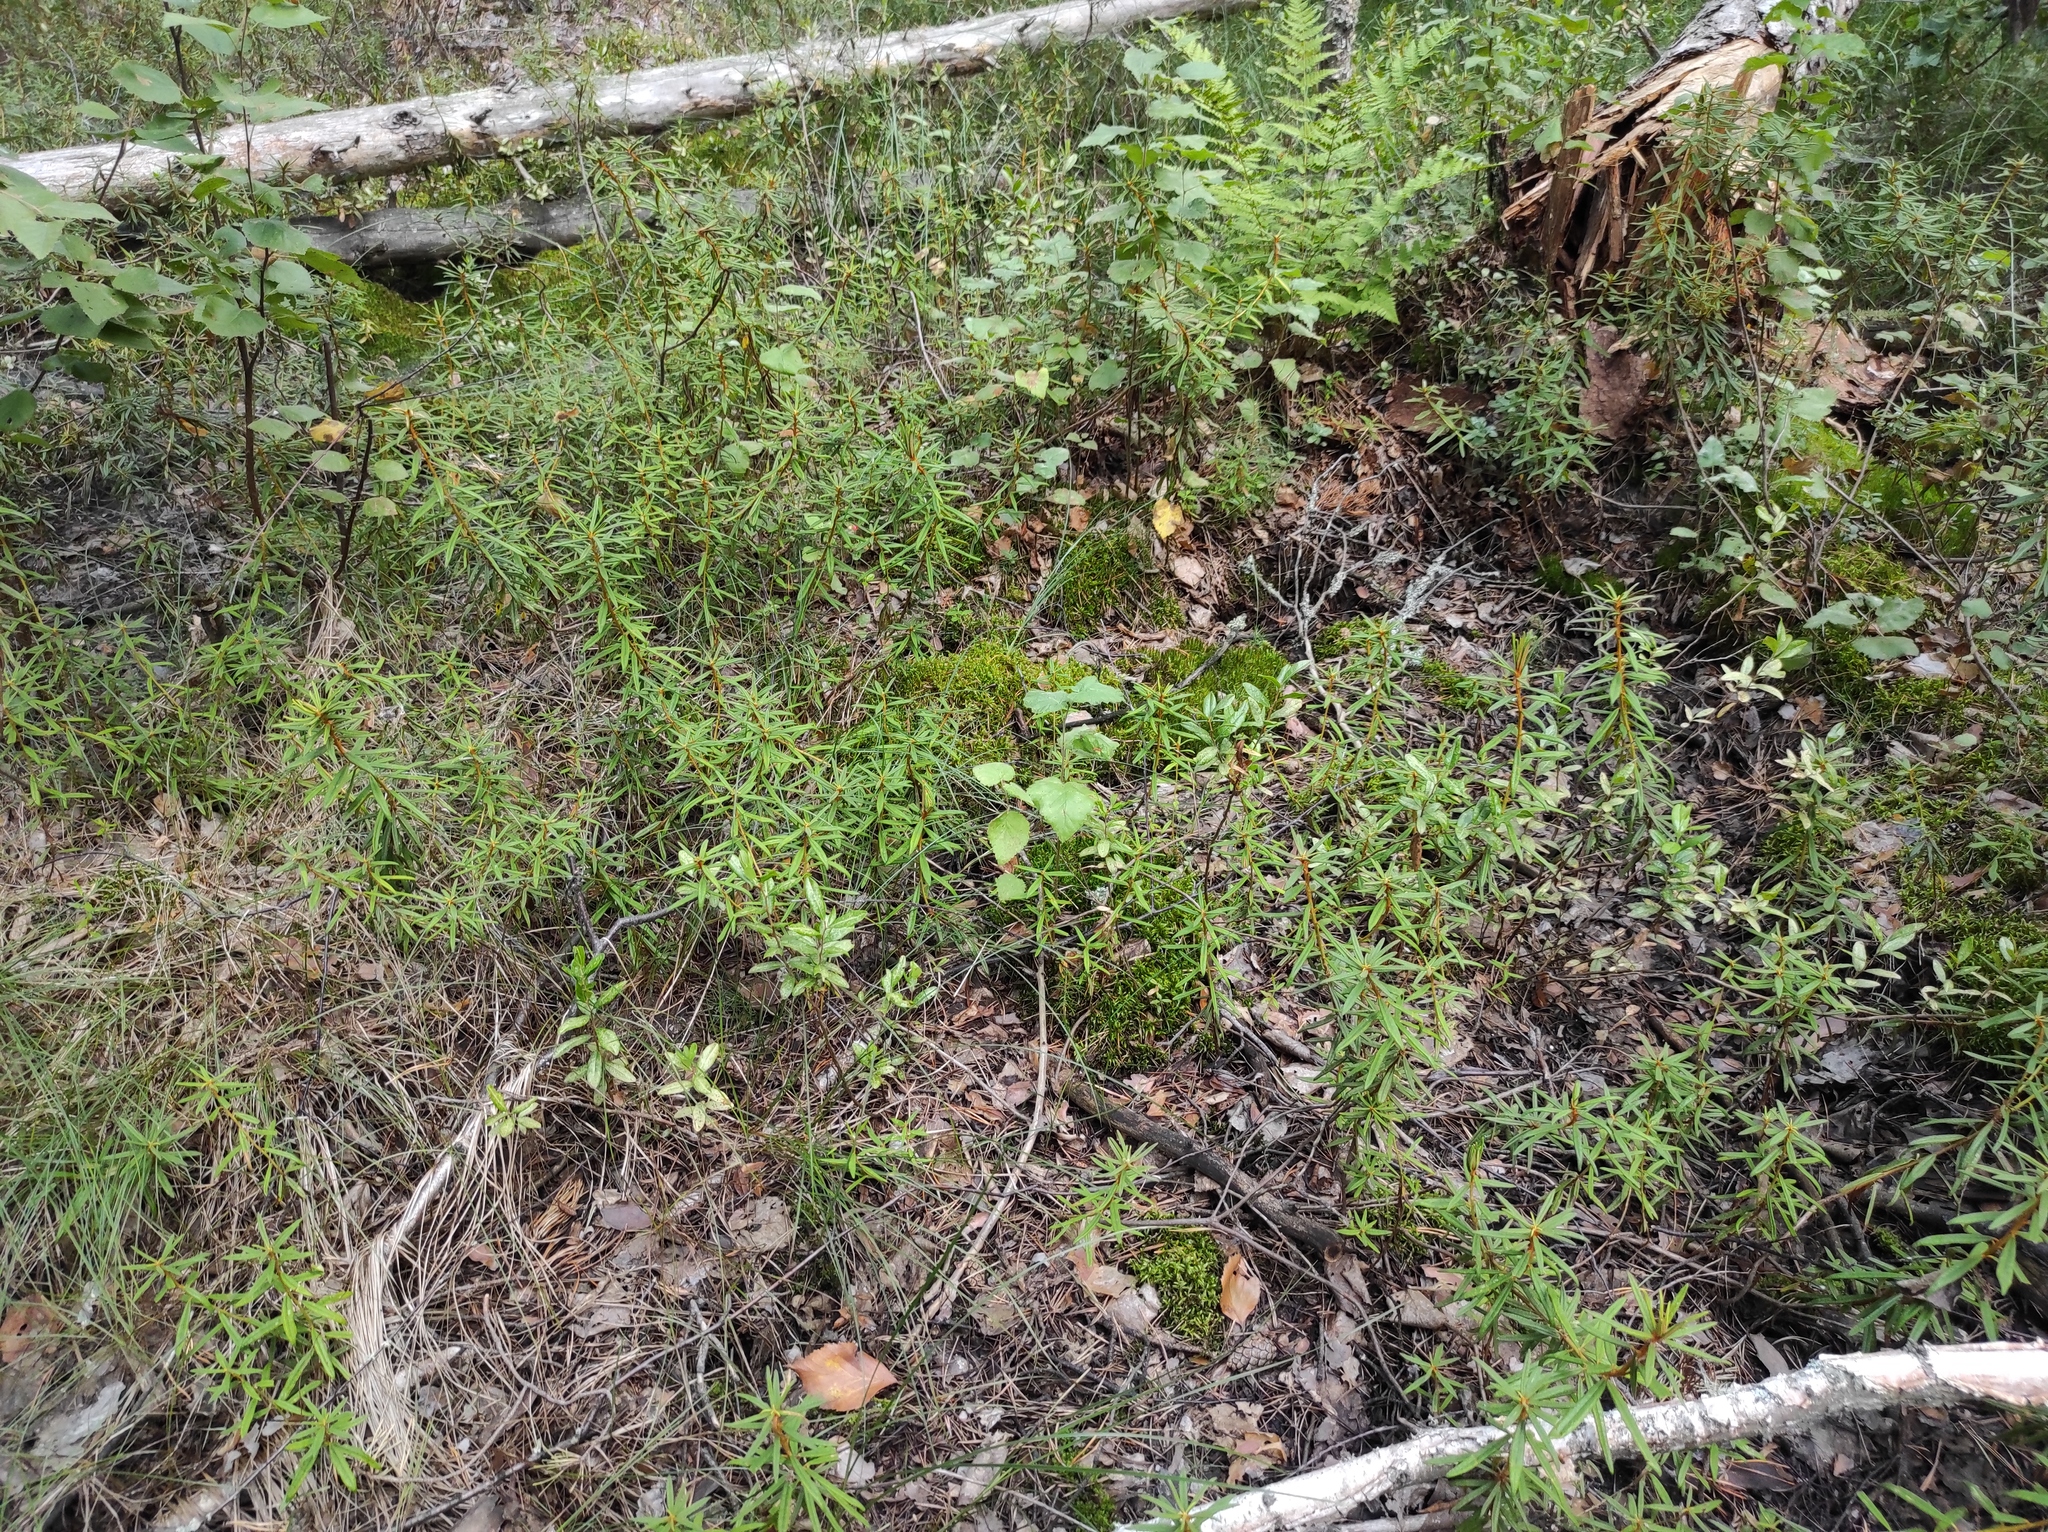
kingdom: Plantae
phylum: Tracheophyta
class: Magnoliopsida
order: Ericales
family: Ericaceae
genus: Rhododendron
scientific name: Rhododendron tomentosum
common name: Marsh labrador tea
